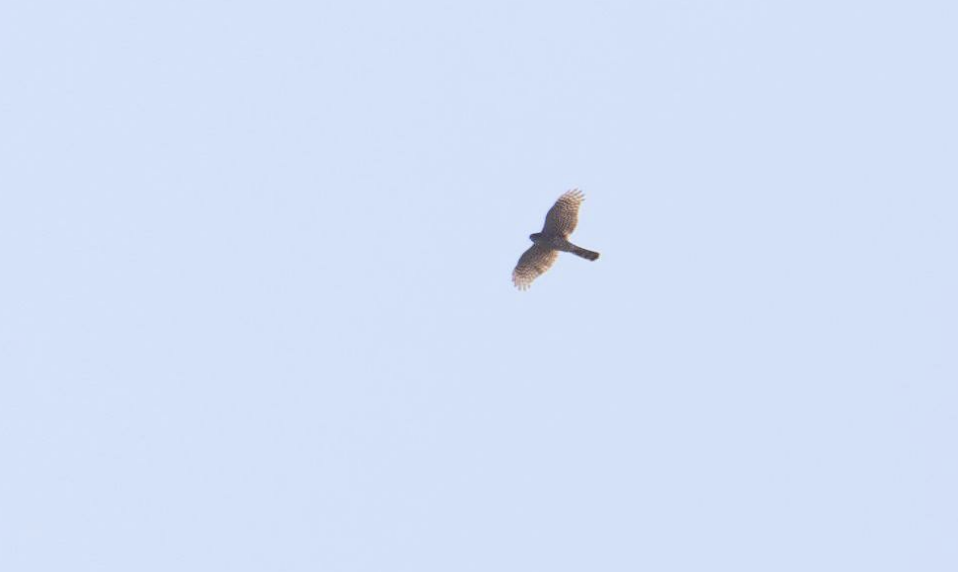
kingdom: Animalia
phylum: Chordata
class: Aves
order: Accipitriformes
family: Accipitridae
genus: Accipiter
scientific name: Accipiter nisus
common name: Eurasian sparrowhawk
